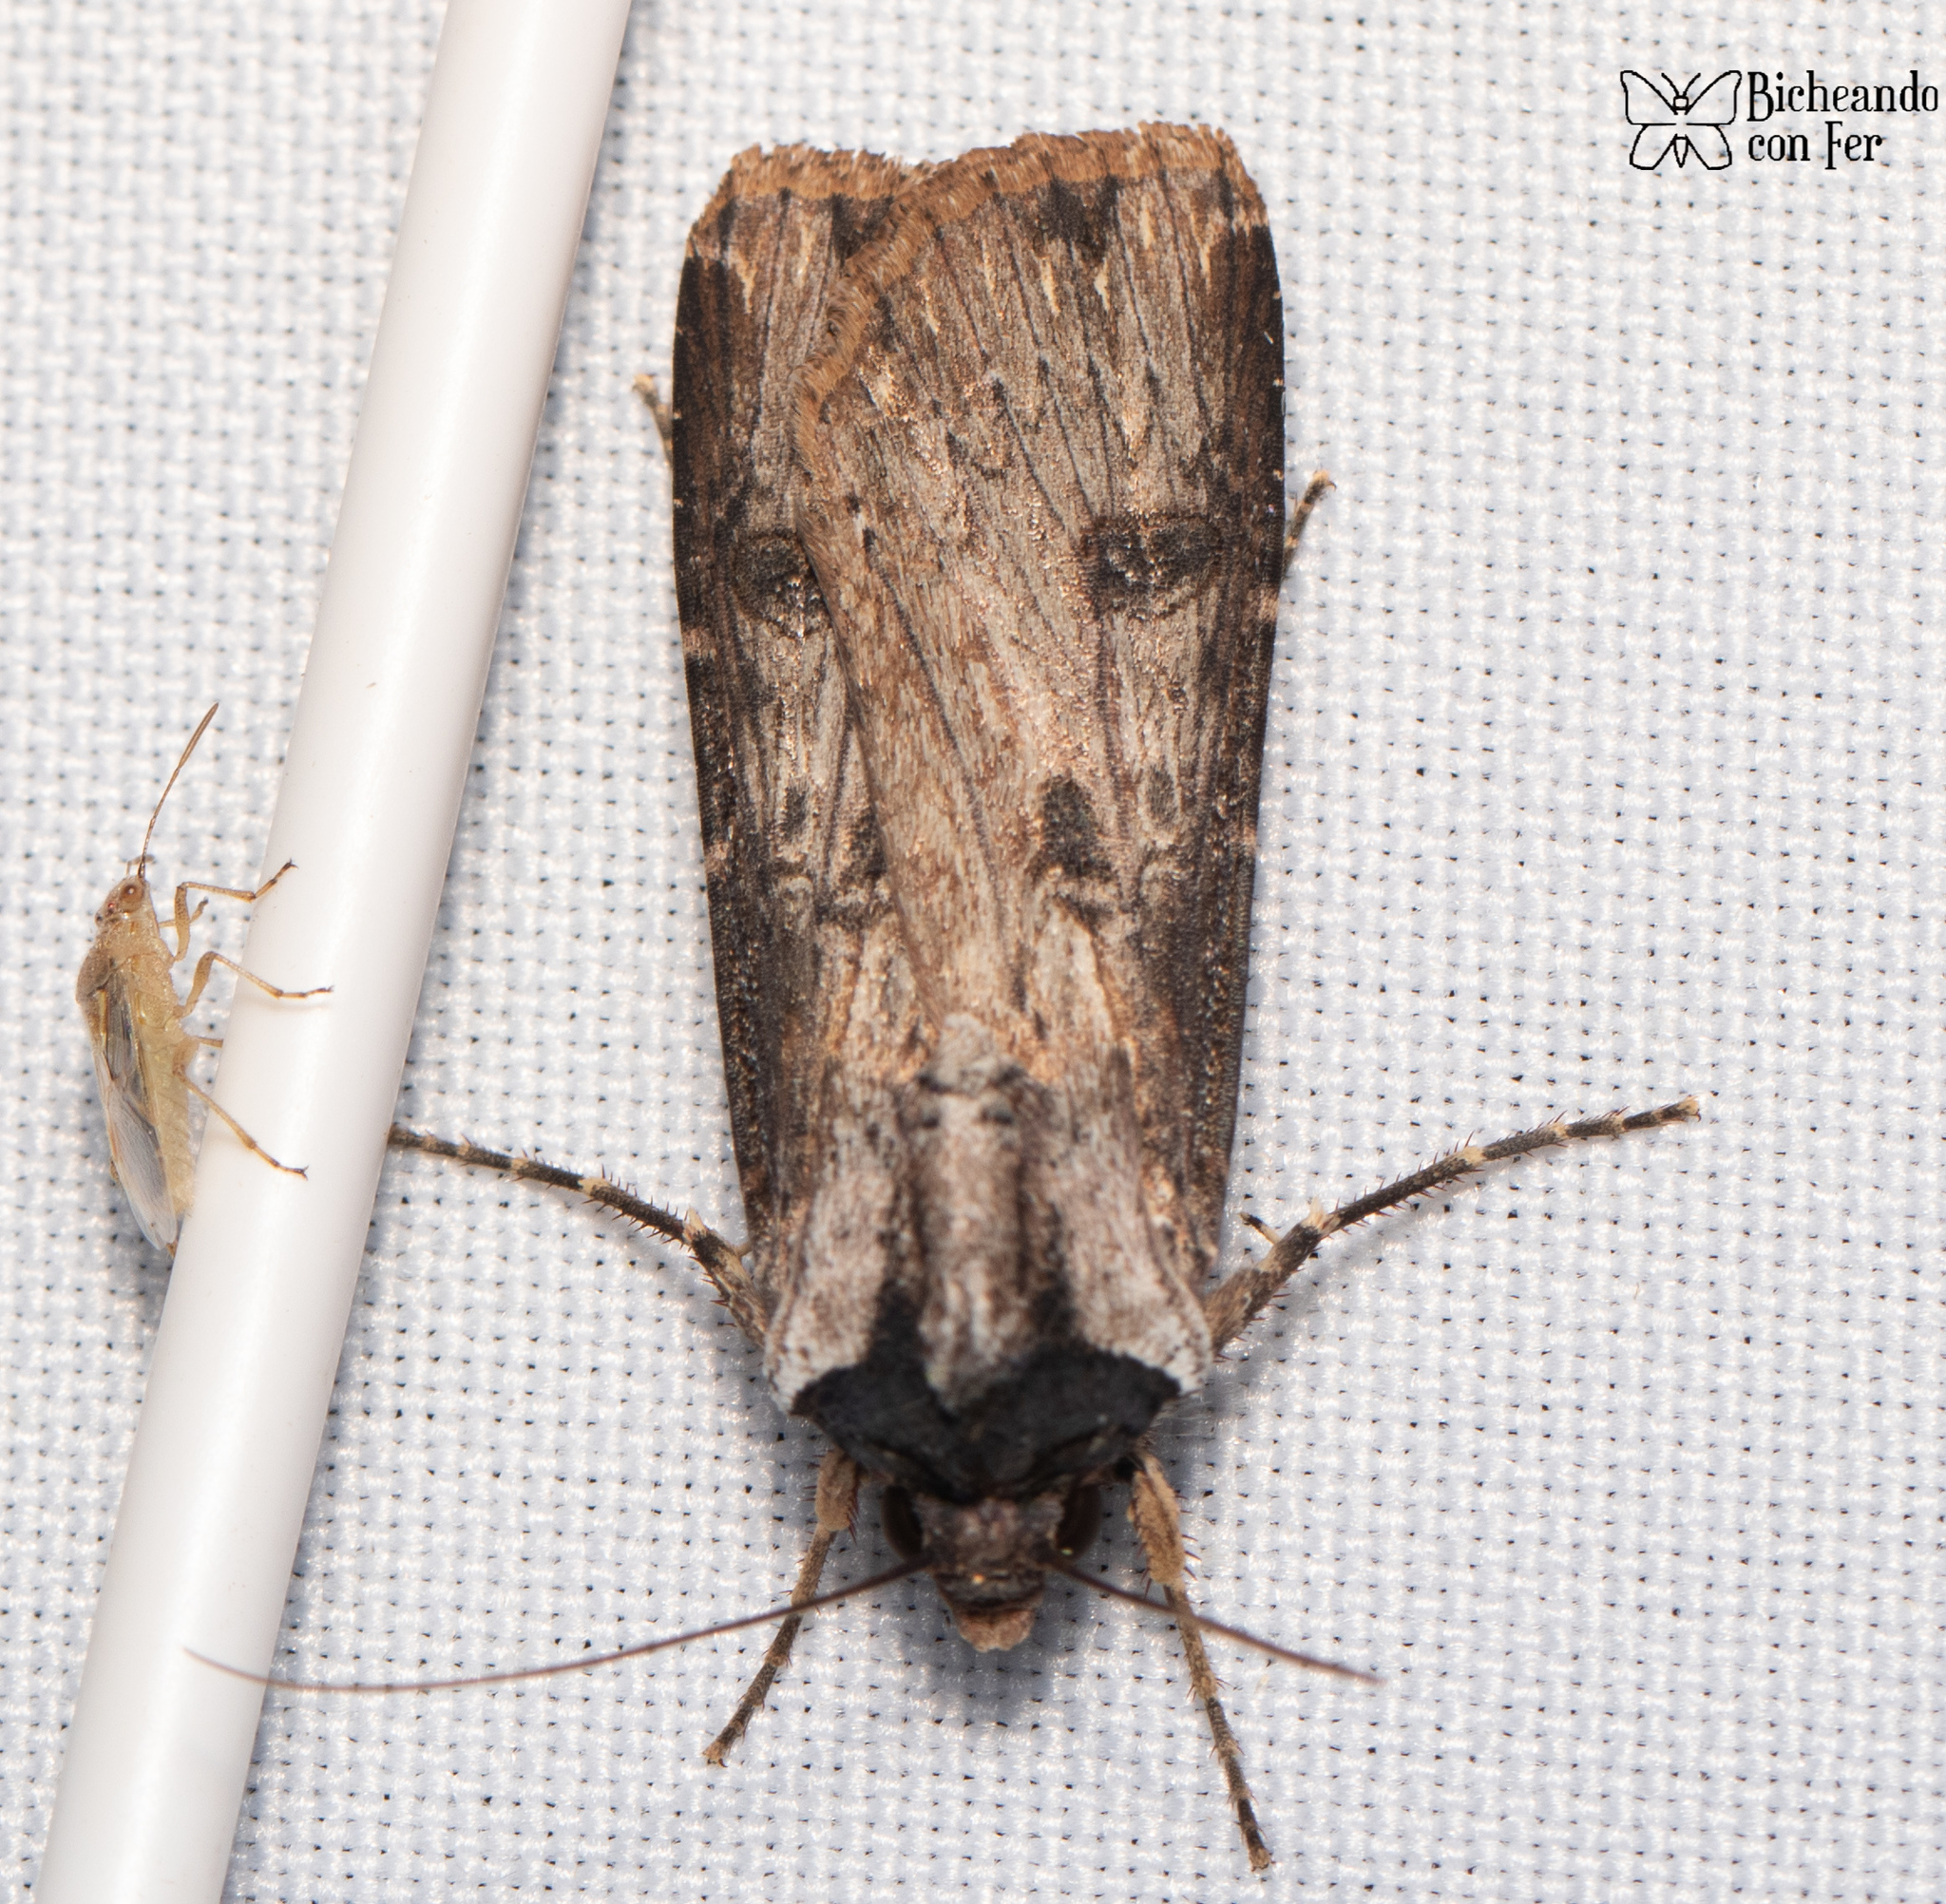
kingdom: Animalia
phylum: Arthropoda
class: Insecta
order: Lepidoptera
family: Noctuidae
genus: Agrotis
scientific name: Agrotis malefida
